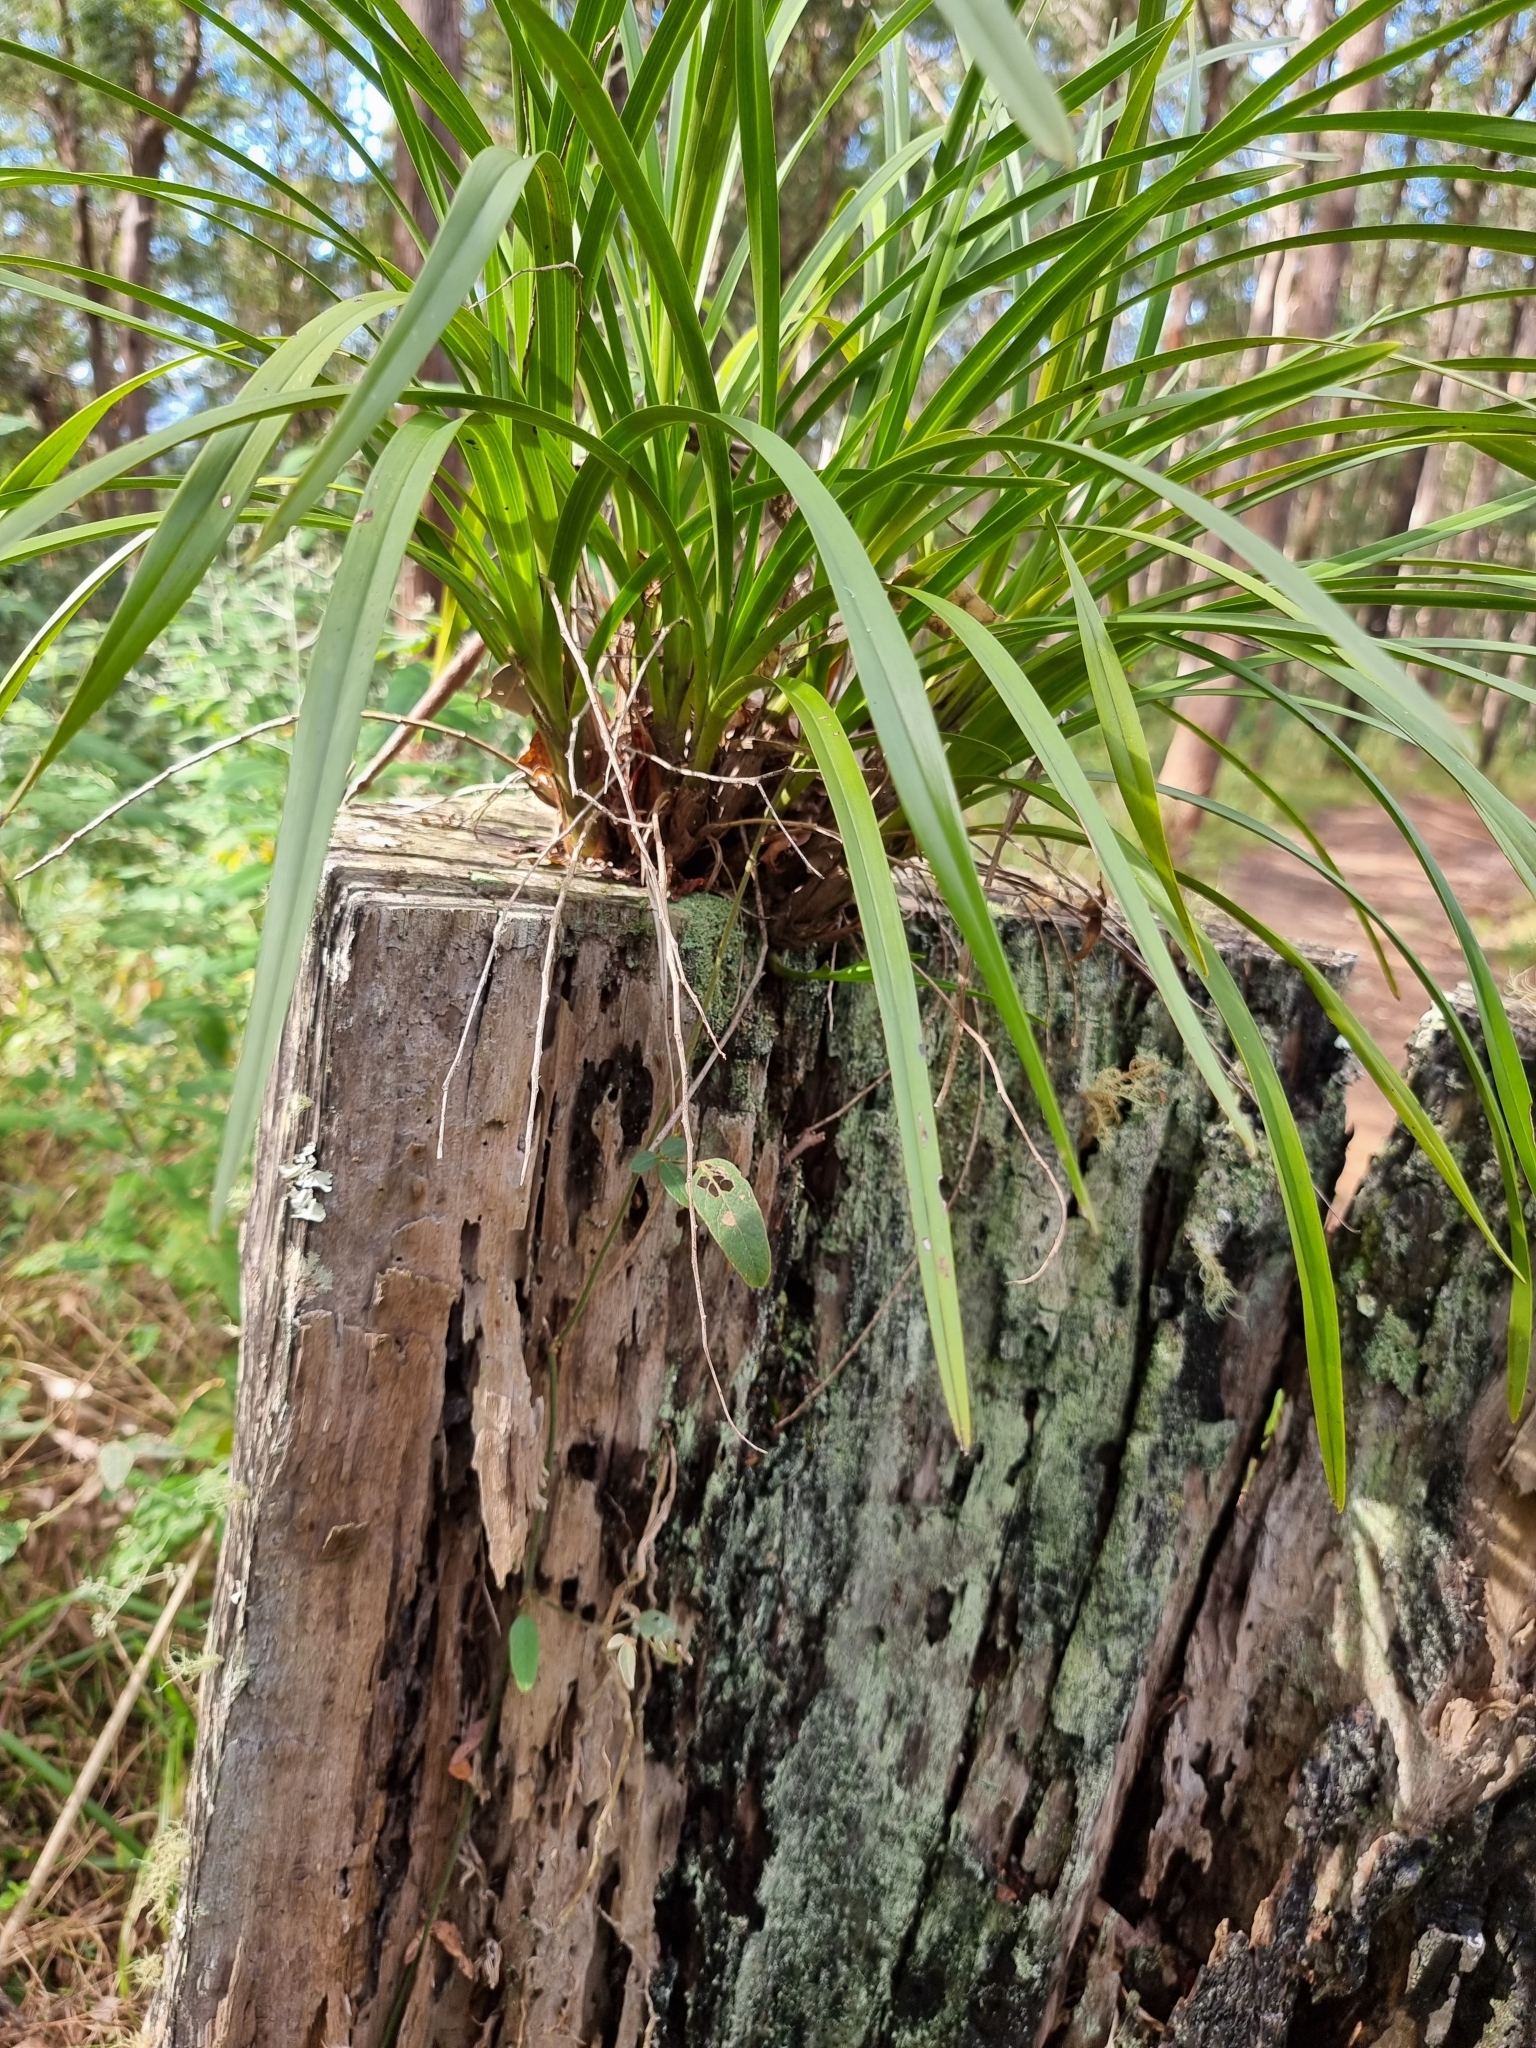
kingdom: Plantae
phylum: Tracheophyta
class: Liliopsida
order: Asparagales
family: Orchidaceae
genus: Cymbidium
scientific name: Cymbidium suave
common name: Snake orchid
